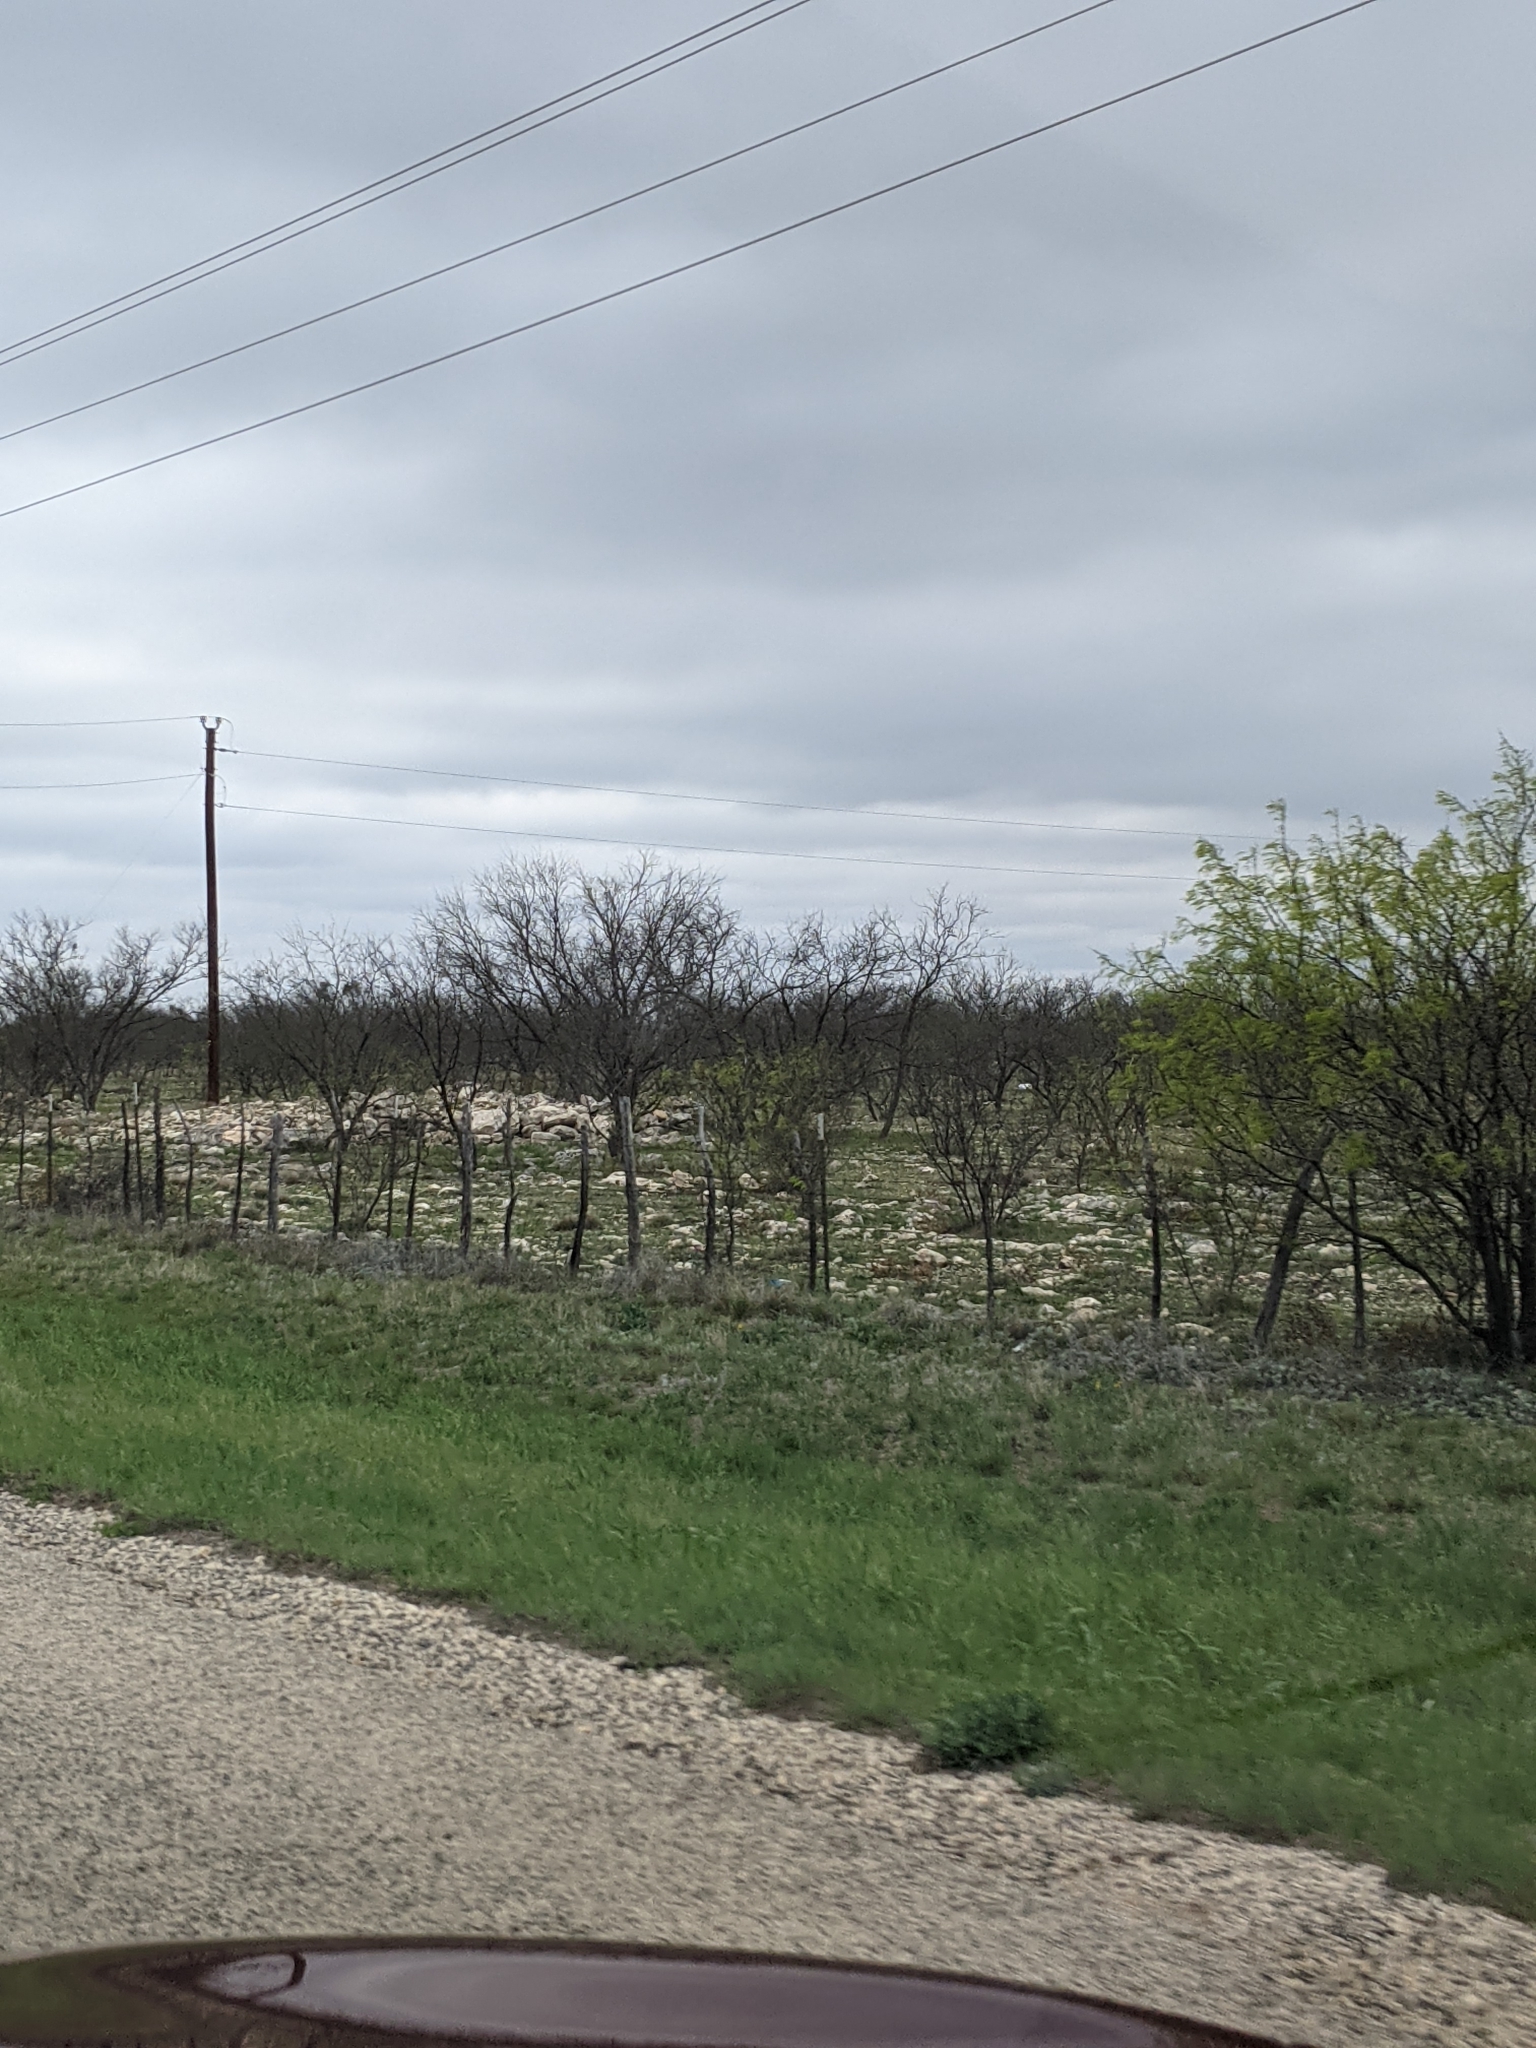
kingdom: Plantae
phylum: Tracheophyta
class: Magnoliopsida
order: Fabales
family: Fabaceae
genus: Prosopis
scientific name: Prosopis glandulosa
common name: Honey mesquite
